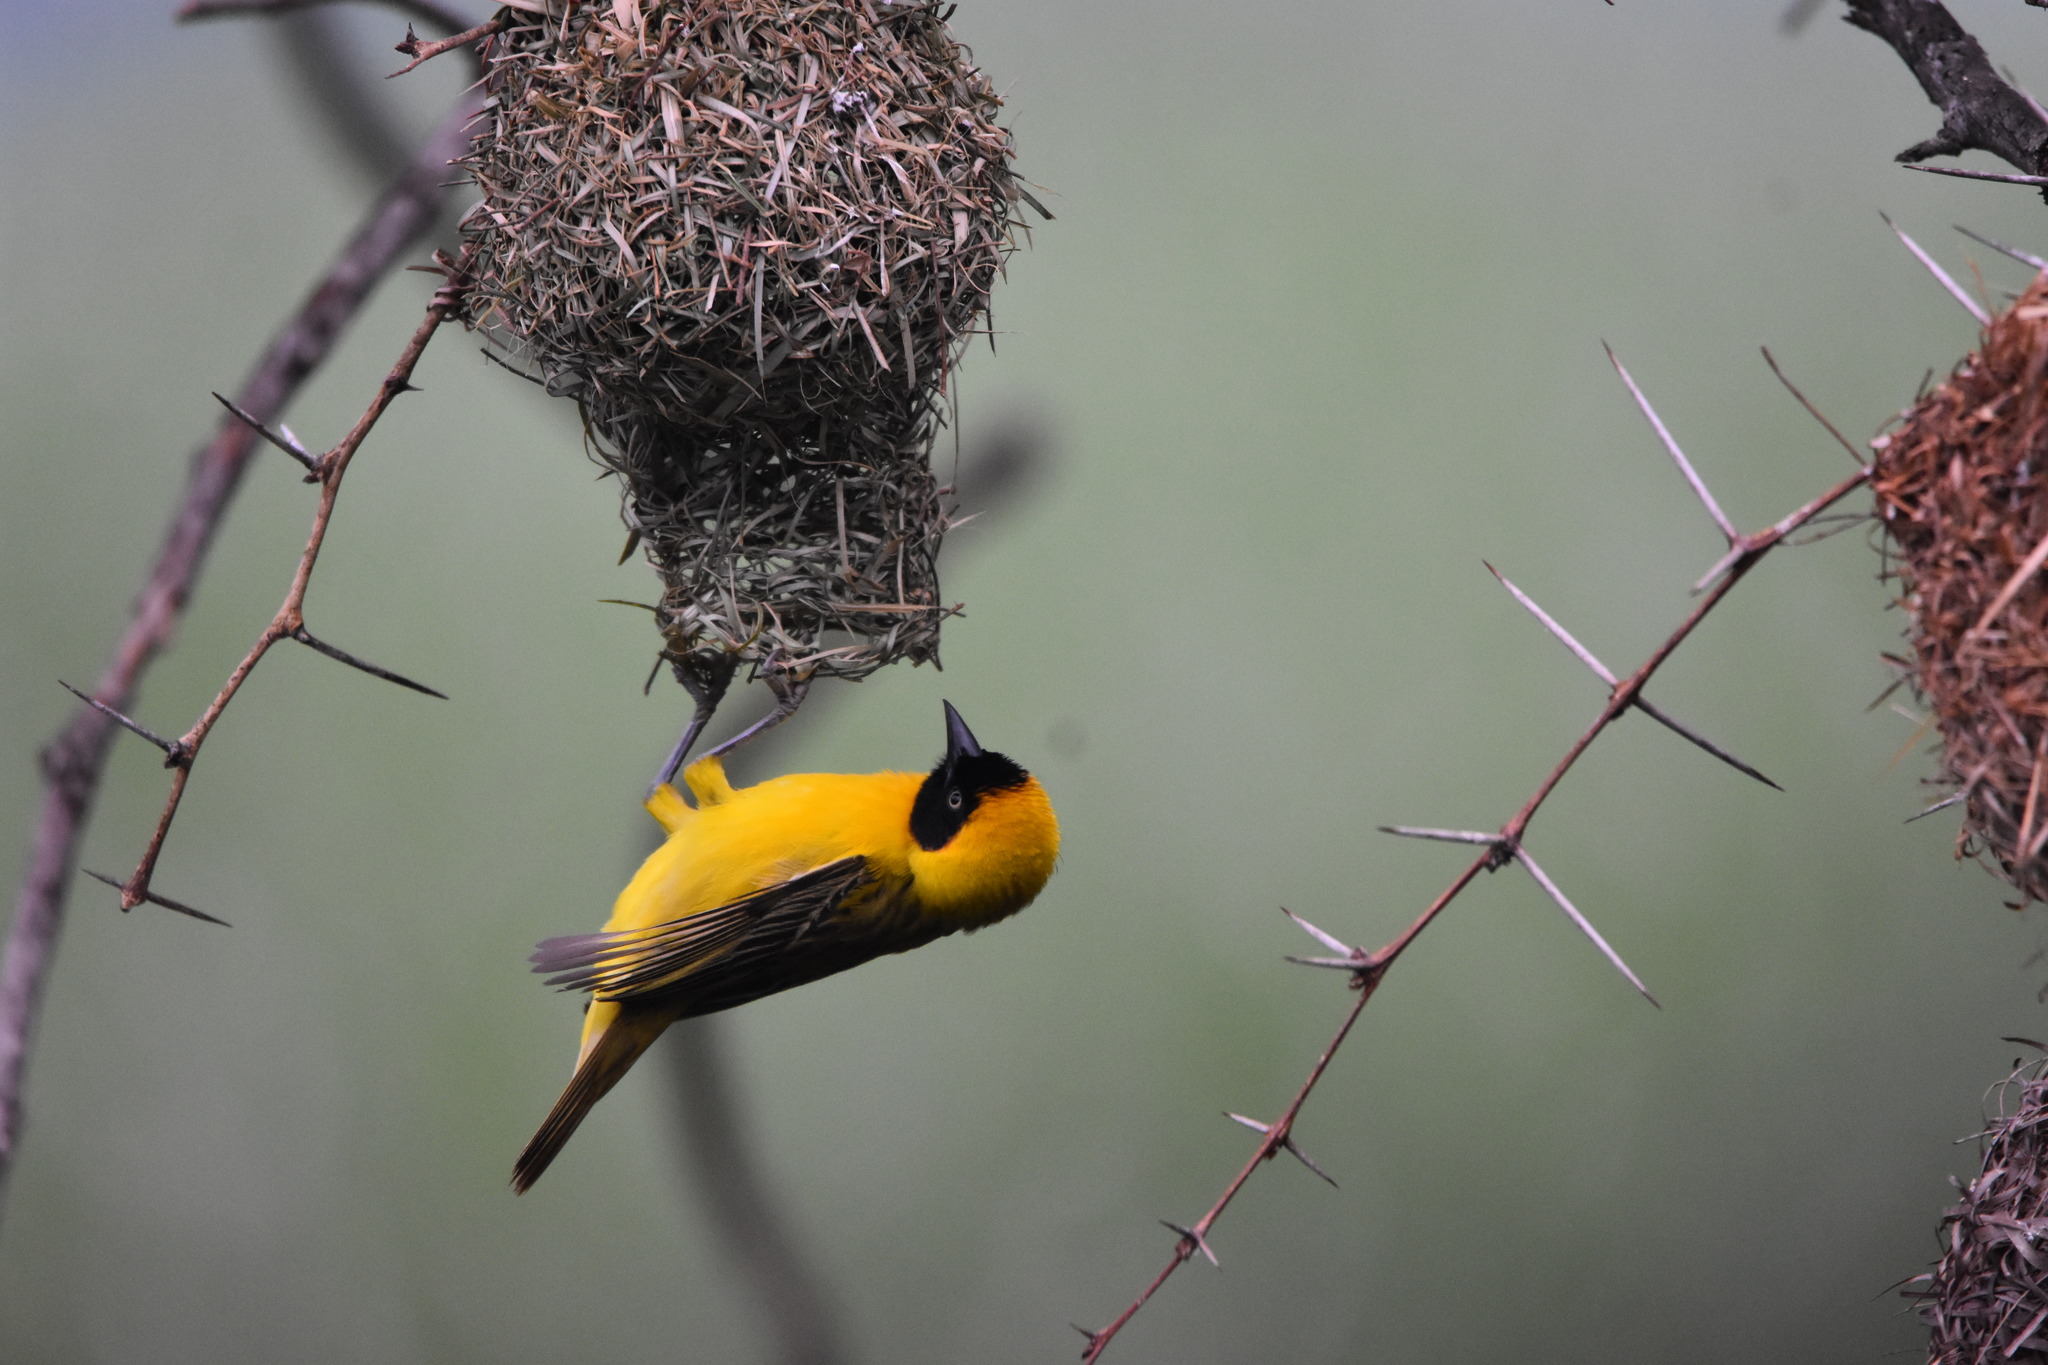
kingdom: Animalia
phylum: Chordata
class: Aves
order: Passeriformes
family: Ploceidae
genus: Ploceus
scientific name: Ploceus intermedius
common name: Lesser masked weaver
